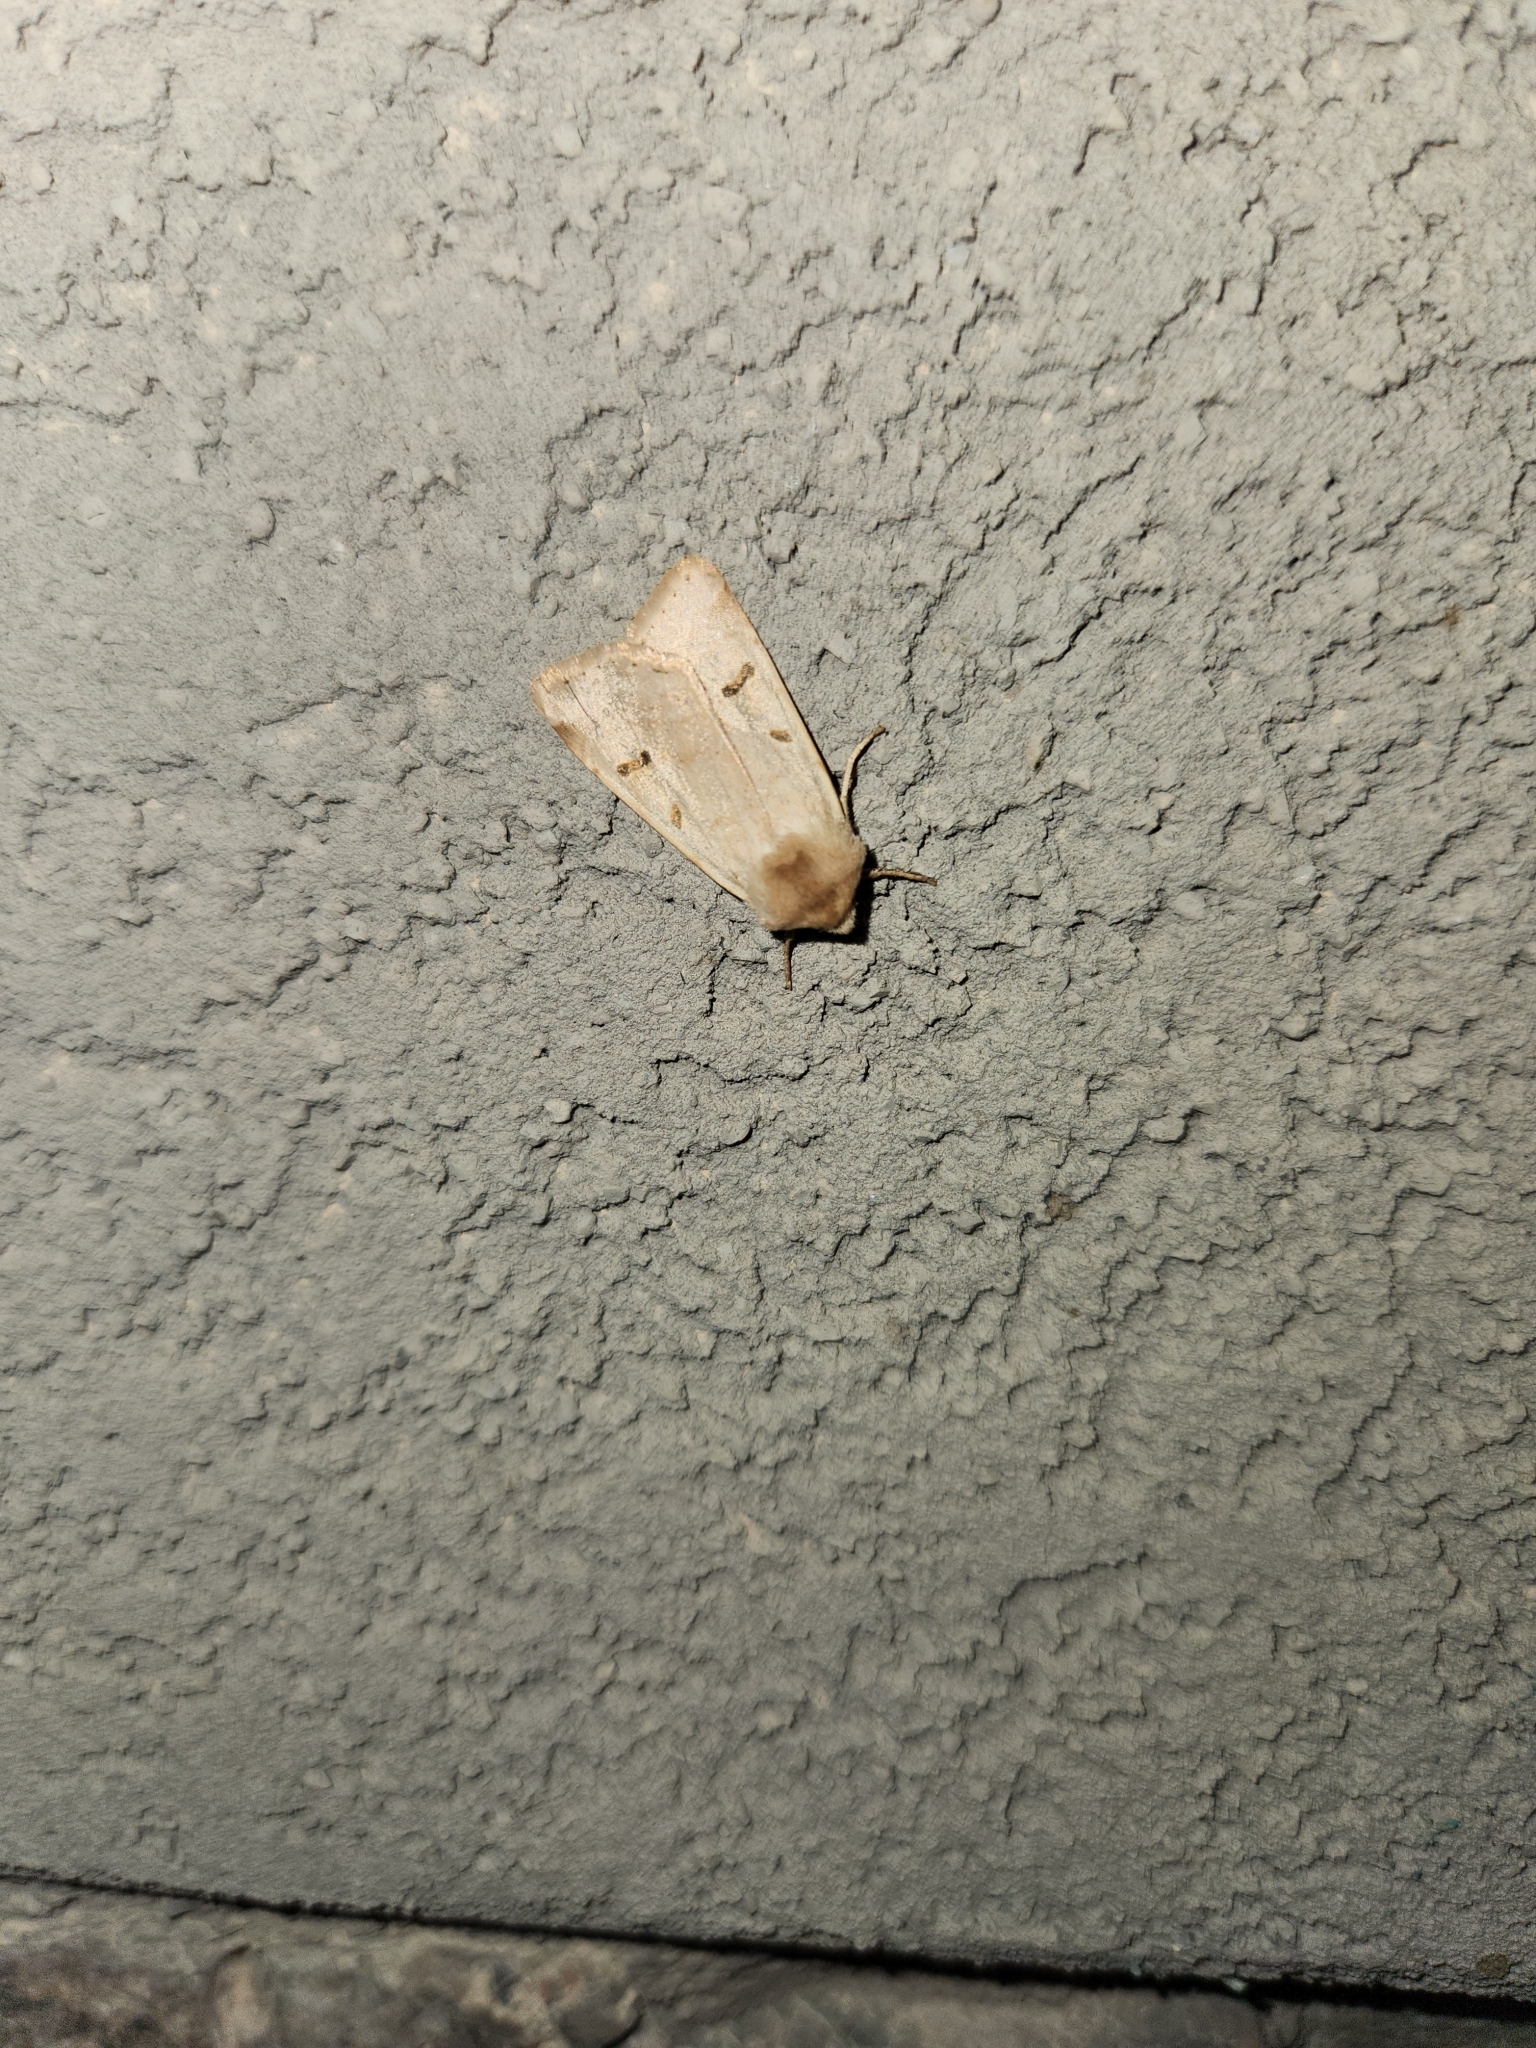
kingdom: Animalia
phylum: Arthropoda
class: Insecta
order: Lepidoptera
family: Noctuidae
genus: Dichagyris
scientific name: Dichagyris variabilis
